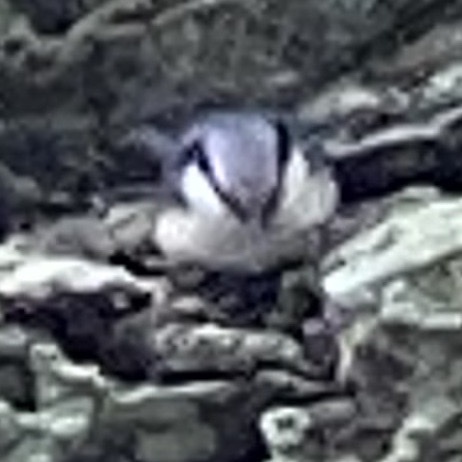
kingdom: Animalia
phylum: Chordata
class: Aves
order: Passeriformes
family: Sittidae
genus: Sitta
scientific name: Sitta europaea
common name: Eurasian nuthatch
